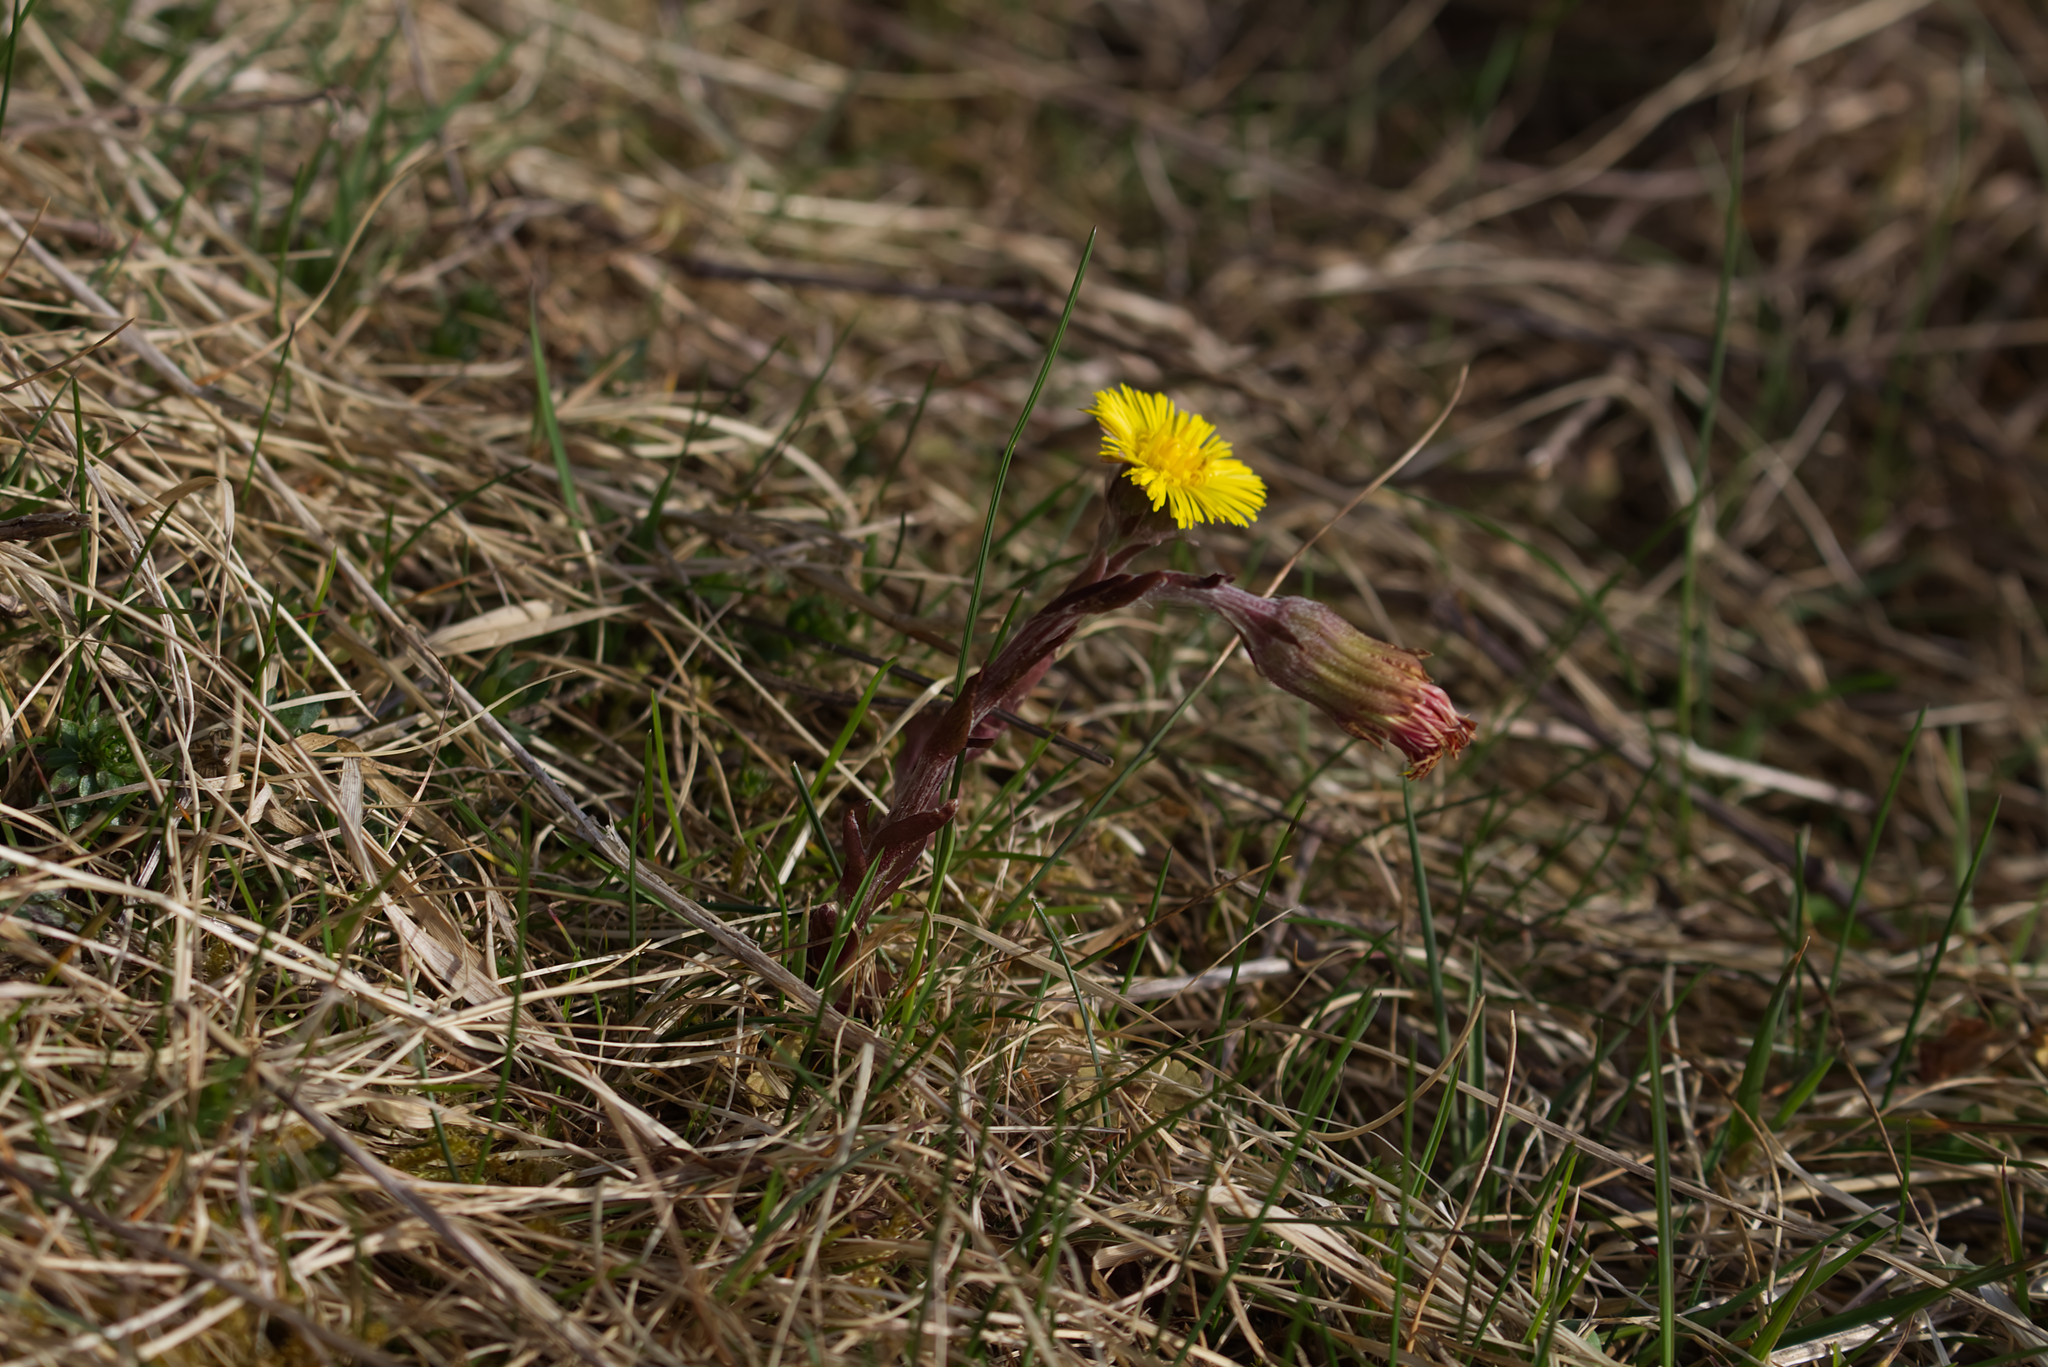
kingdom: Plantae
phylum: Tracheophyta
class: Magnoliopsida
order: Asterales
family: Asteraceae
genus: Tussilago
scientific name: Tussilago farfara
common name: Coltsfoot
